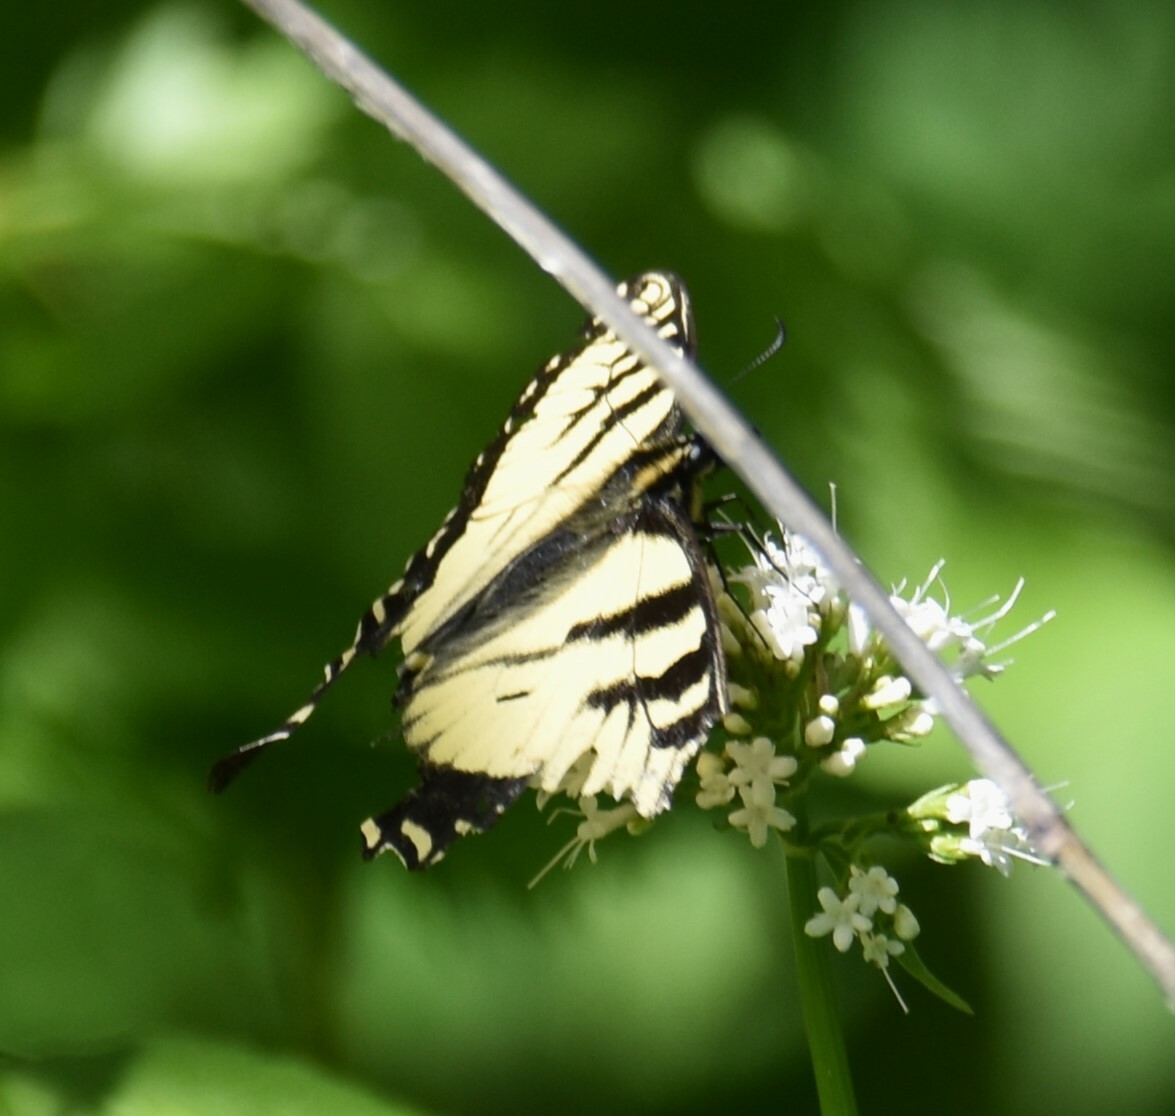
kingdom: Animalia
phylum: Arthropoda
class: Insecta
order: Lepidoptera
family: Papilionidae
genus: Papilio
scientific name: Papilio canadensis
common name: Canadian tiger swallowtail
